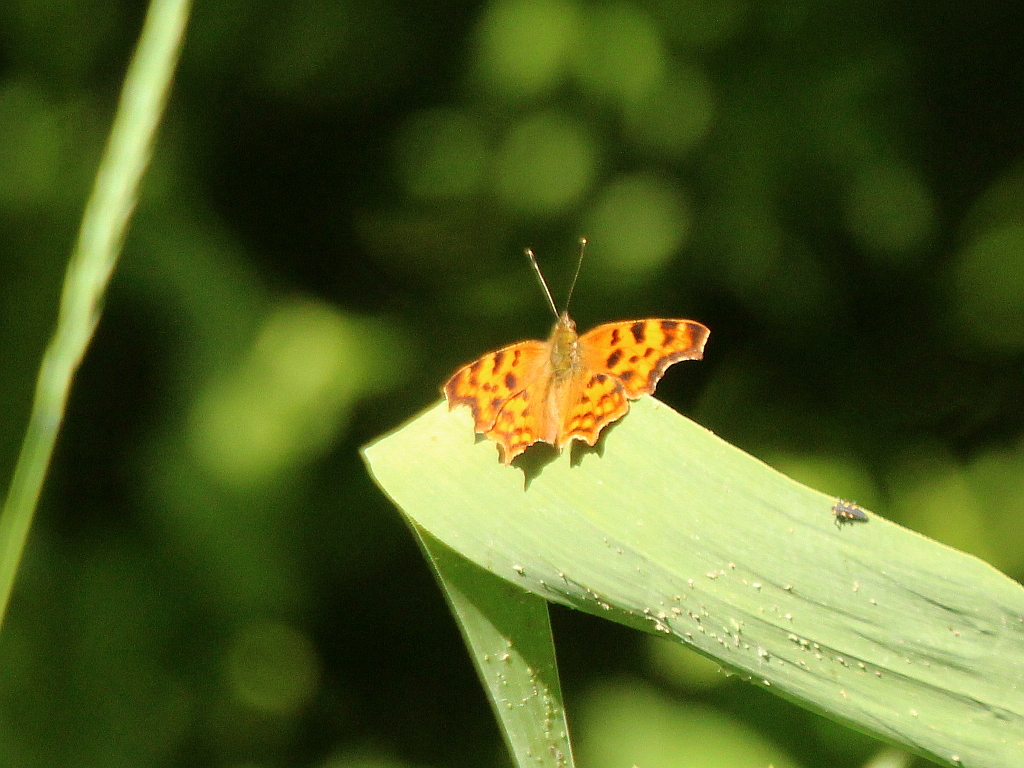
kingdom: Animalia
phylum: Arthropoda
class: Insecta
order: Lepidoptera
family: Nymphalidae
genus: Polygonia
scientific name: Polygonia c-album
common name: Comma
